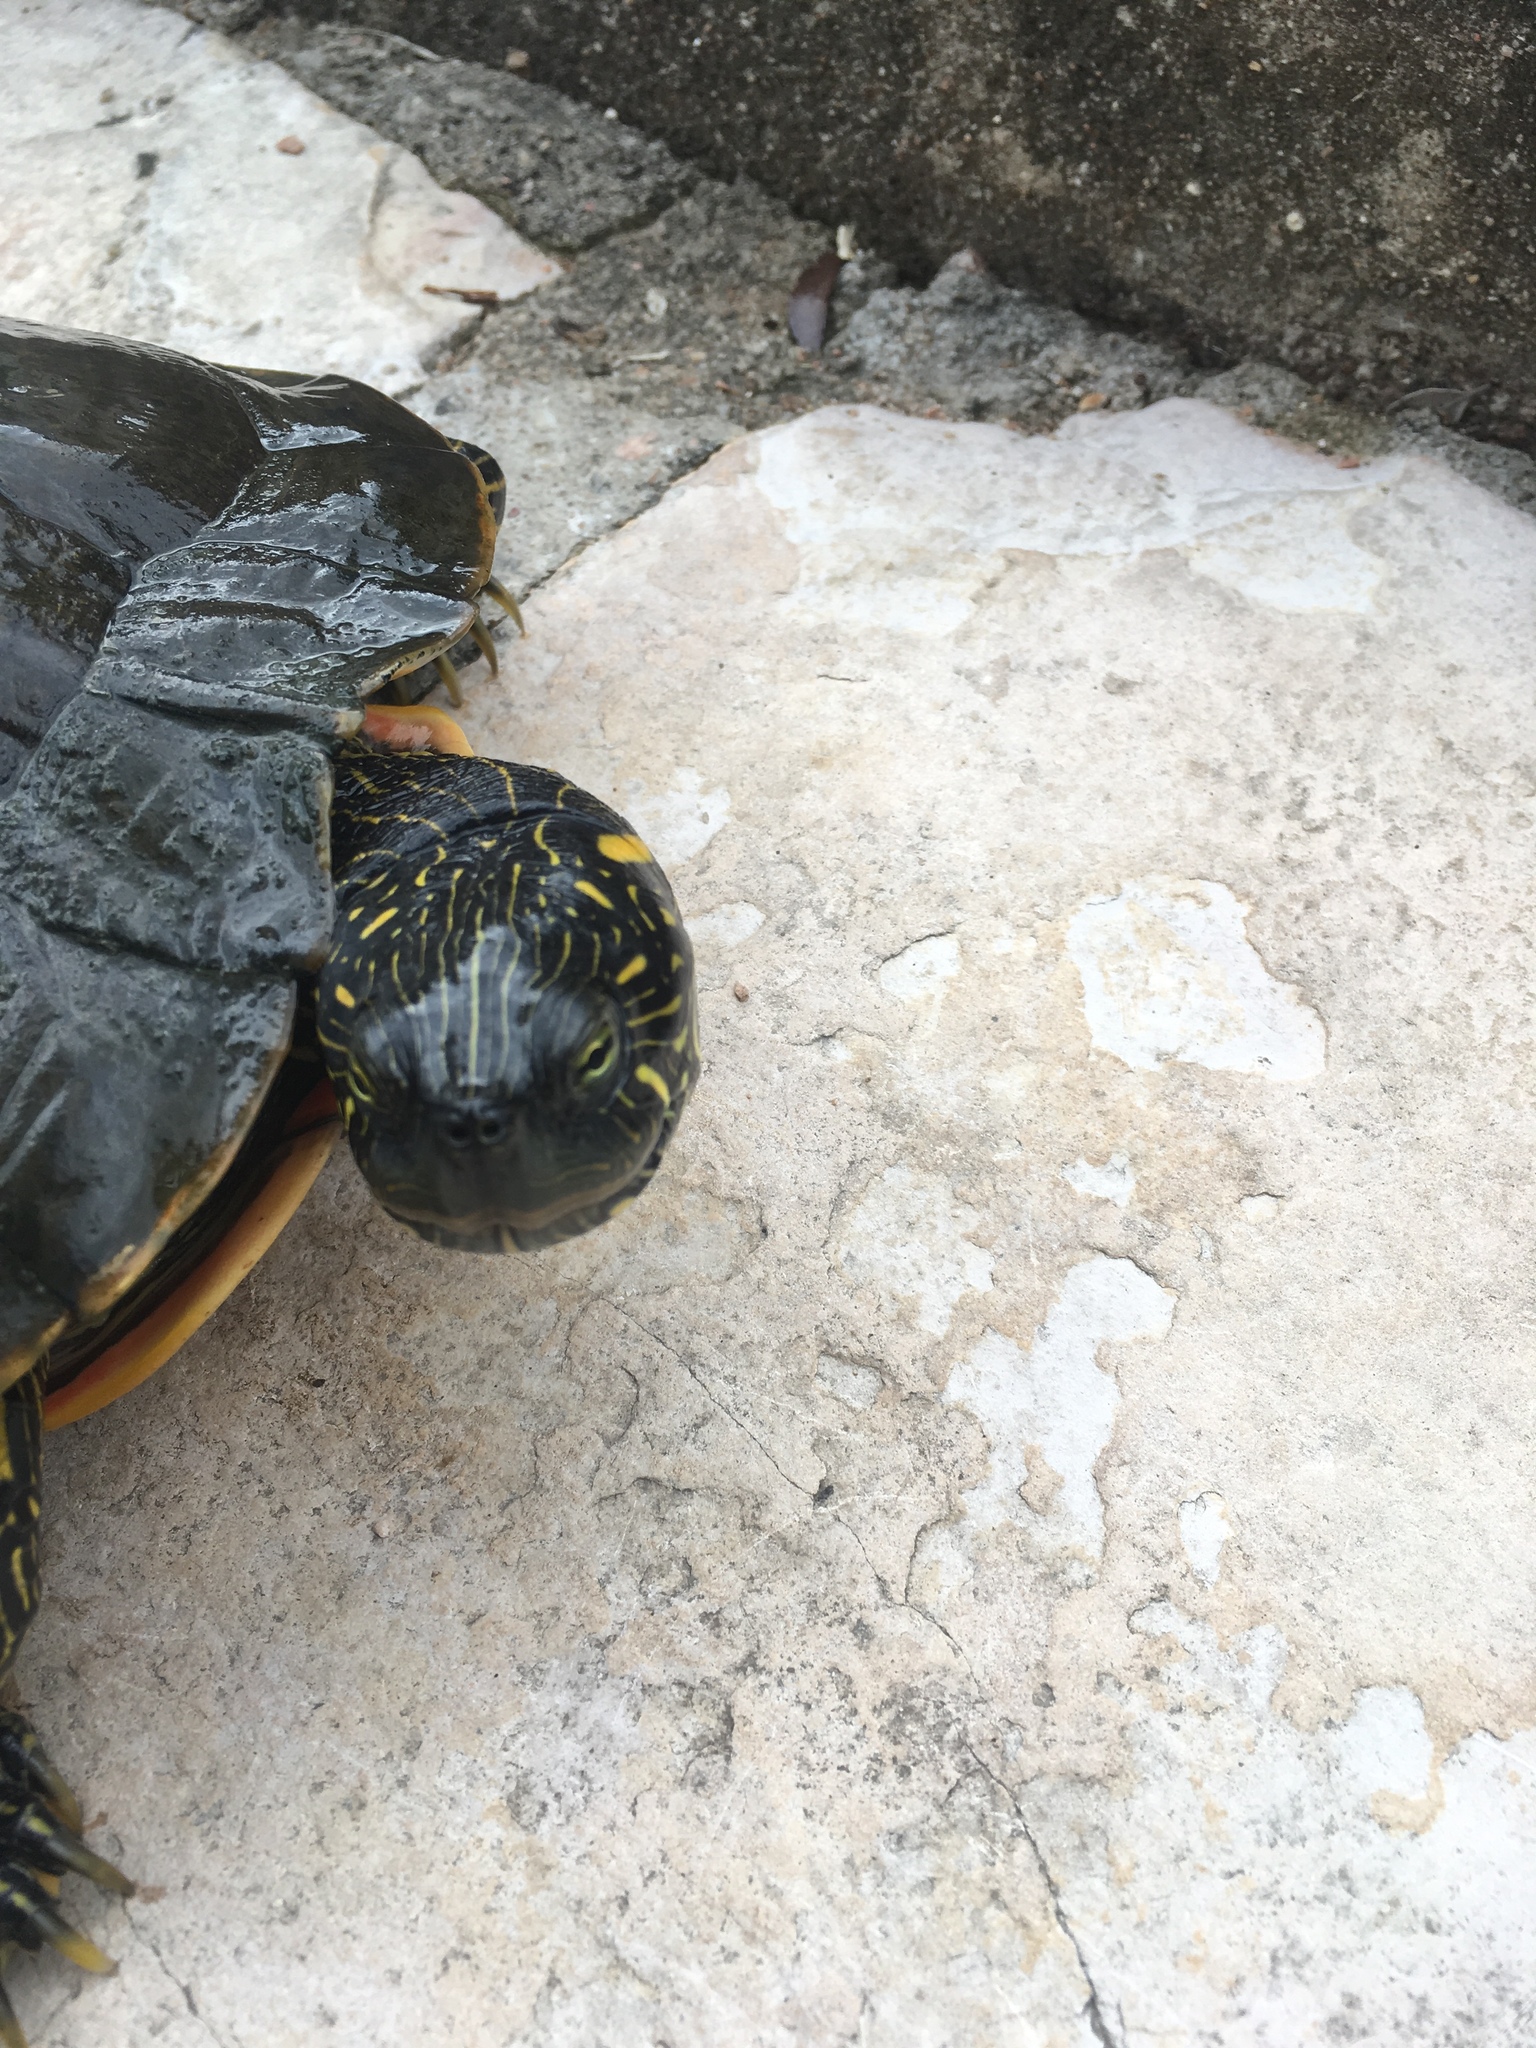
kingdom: Animalia
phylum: Chordata
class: Testudines
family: Emydidae
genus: Pseudemys
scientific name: Pseudemys texana
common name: Texas river cooter
